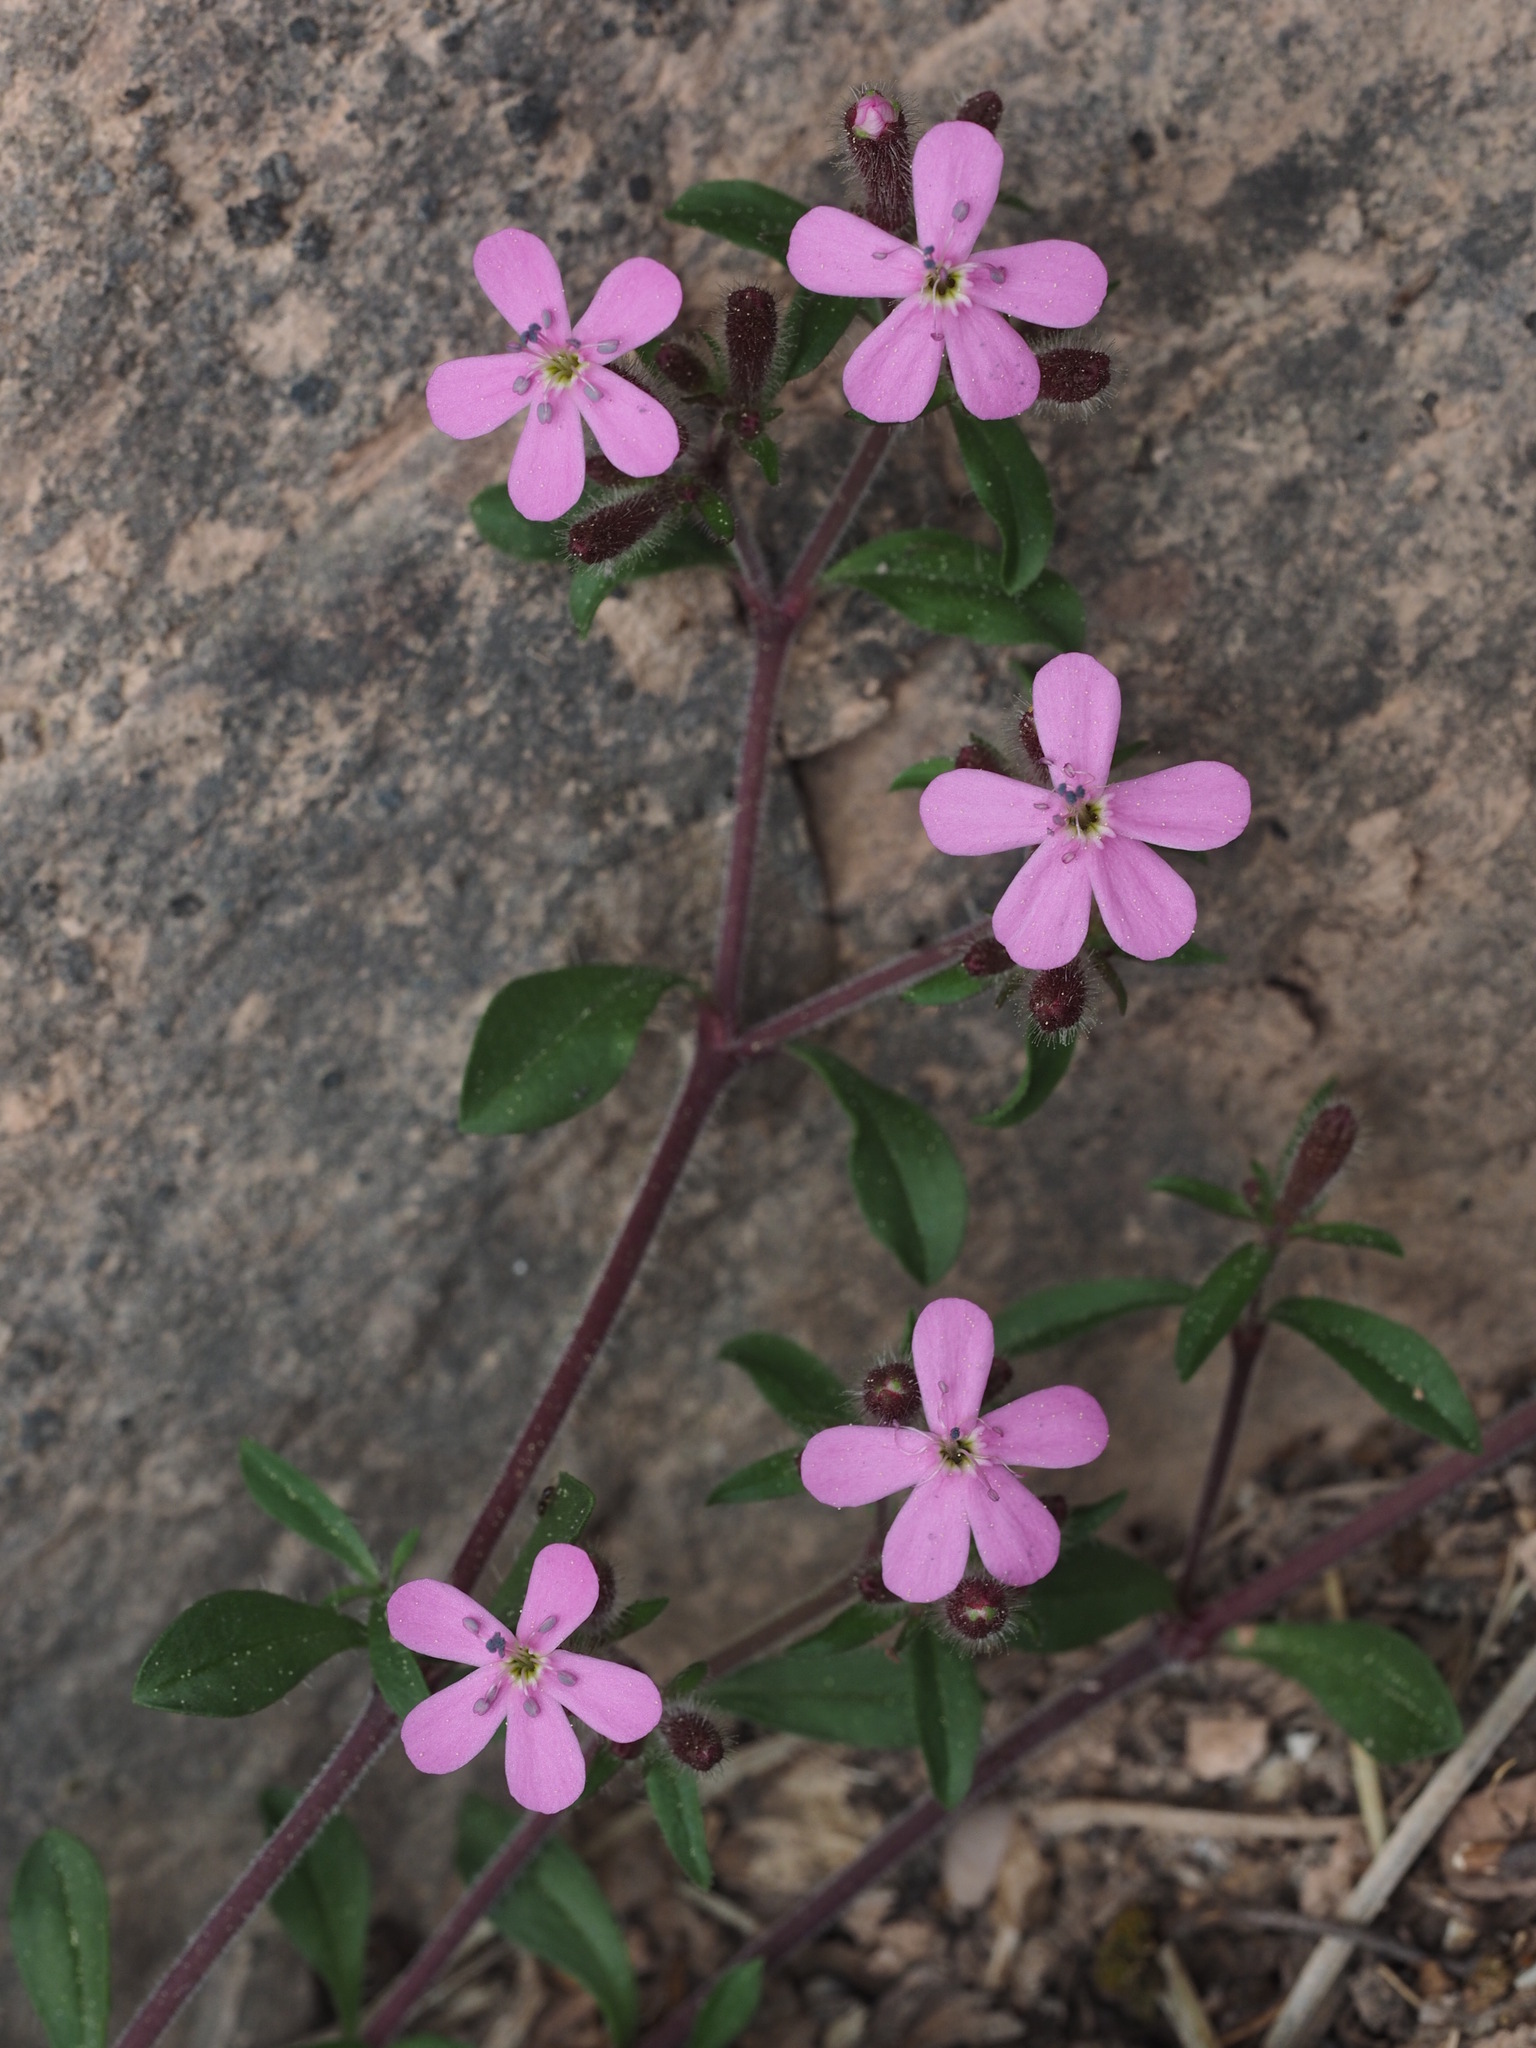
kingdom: Plantae
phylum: Tracheophyta
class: Magnoliopsida
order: Caryophyllales
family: Caryophyllaceae
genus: Saponaria
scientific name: Saponaria ocymoides
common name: Rock soapwort
